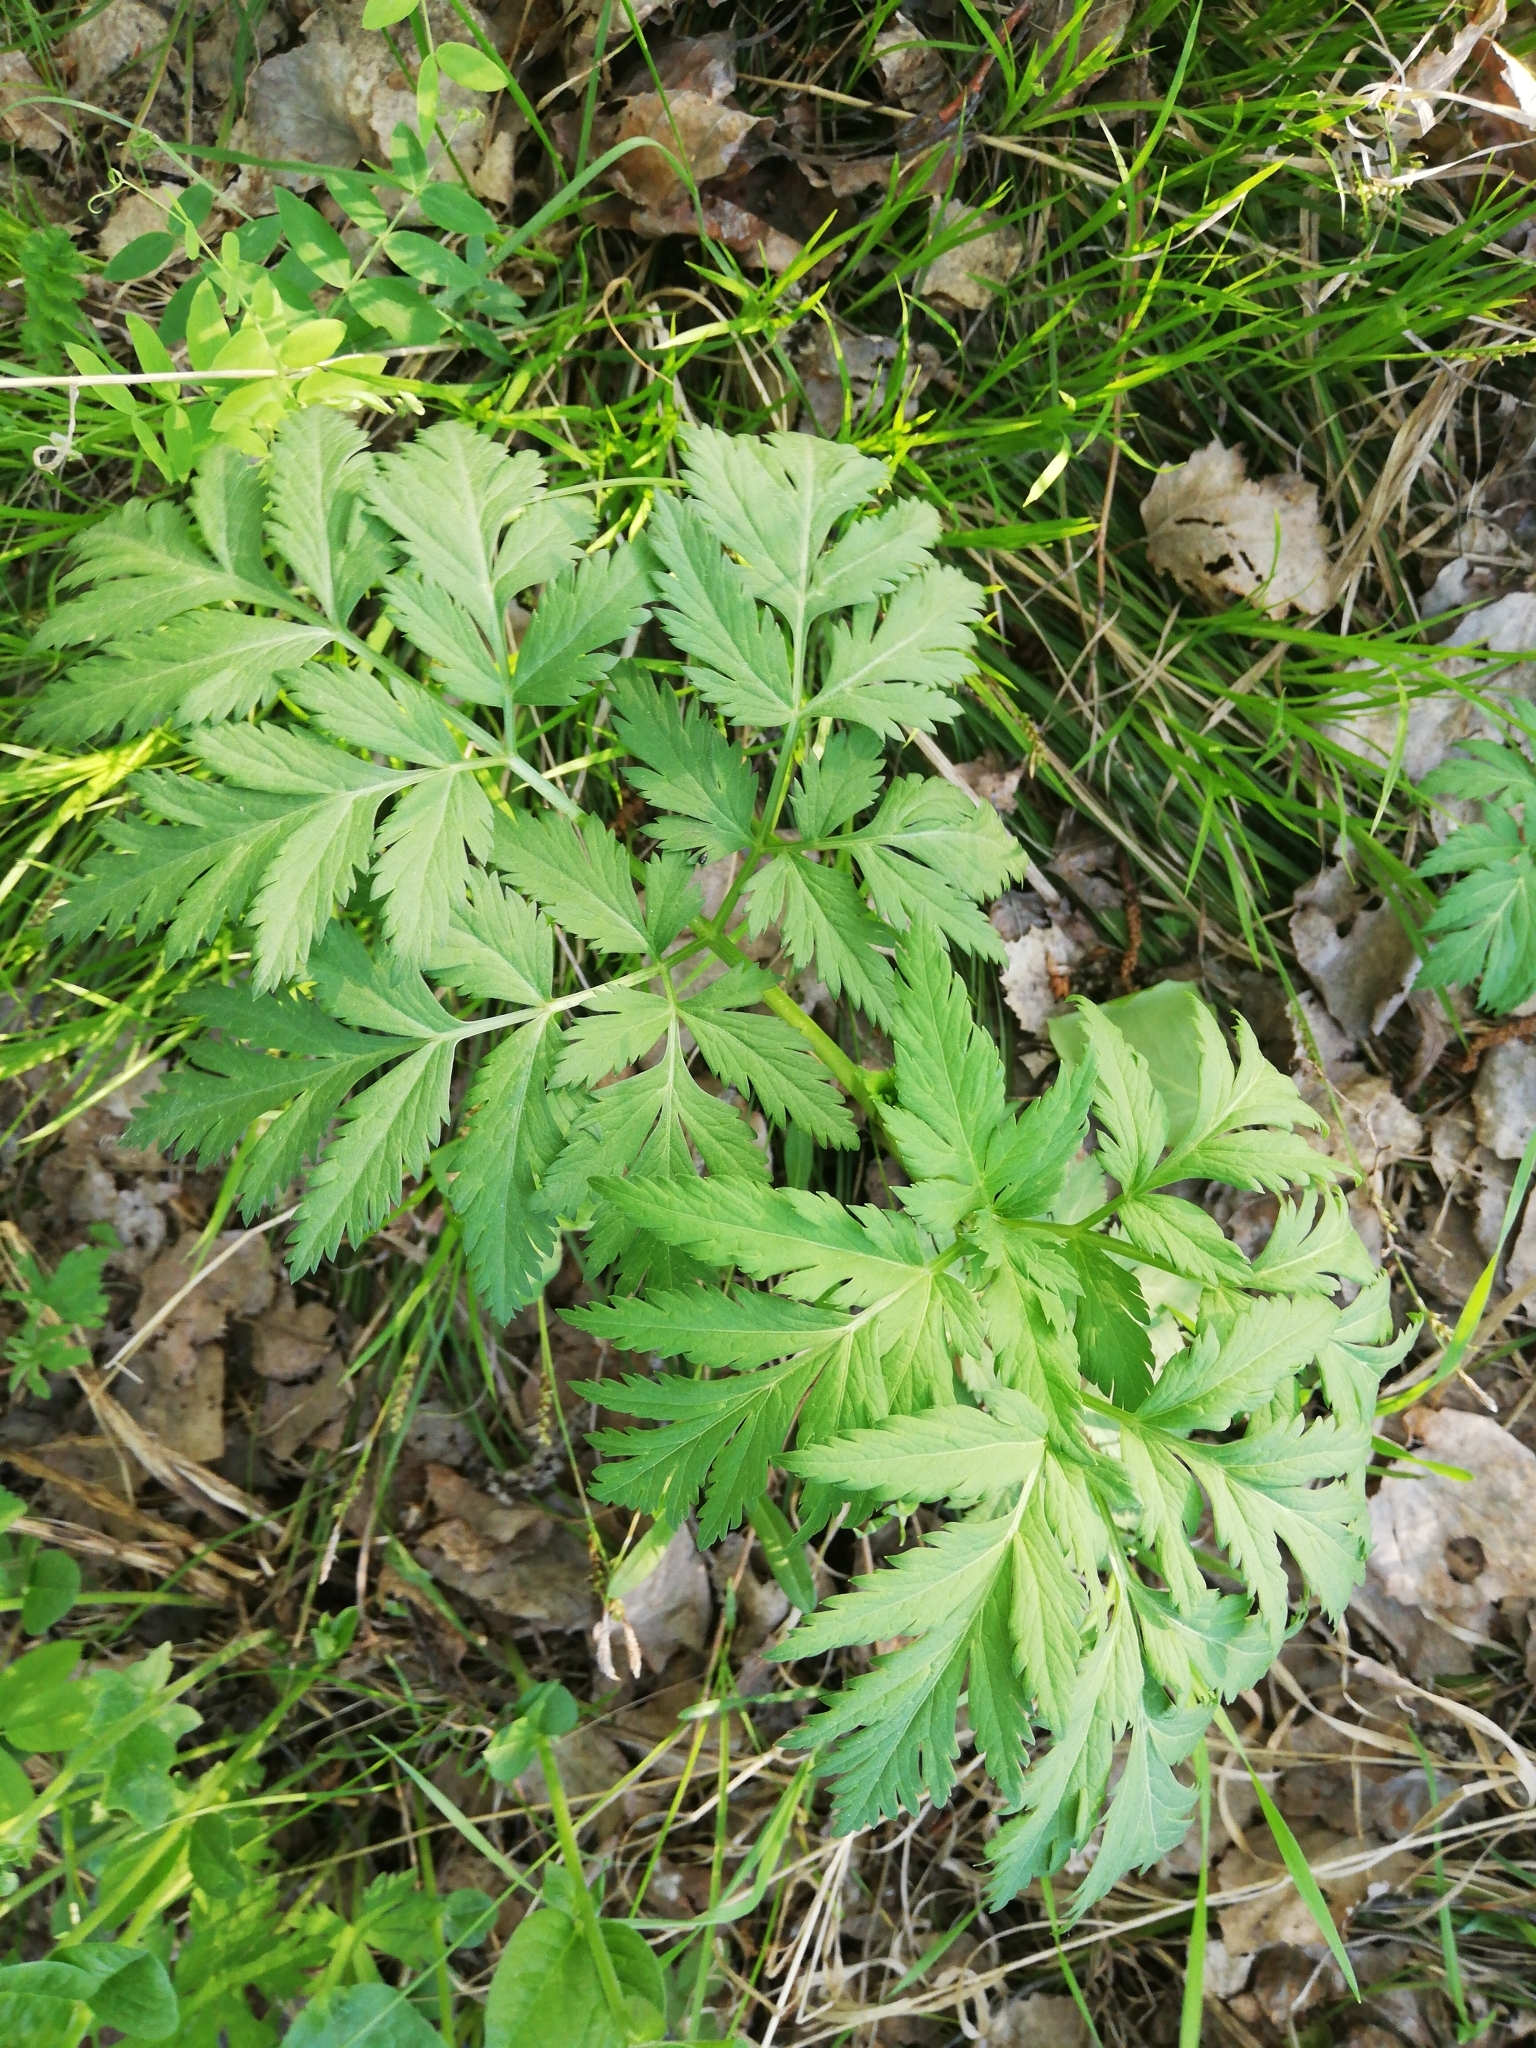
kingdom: Plantae
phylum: Tracheophyta
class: Magnoliopsida
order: Apiales
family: Apiaceae
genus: Pleurospermum
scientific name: Pleurospermum uralense
